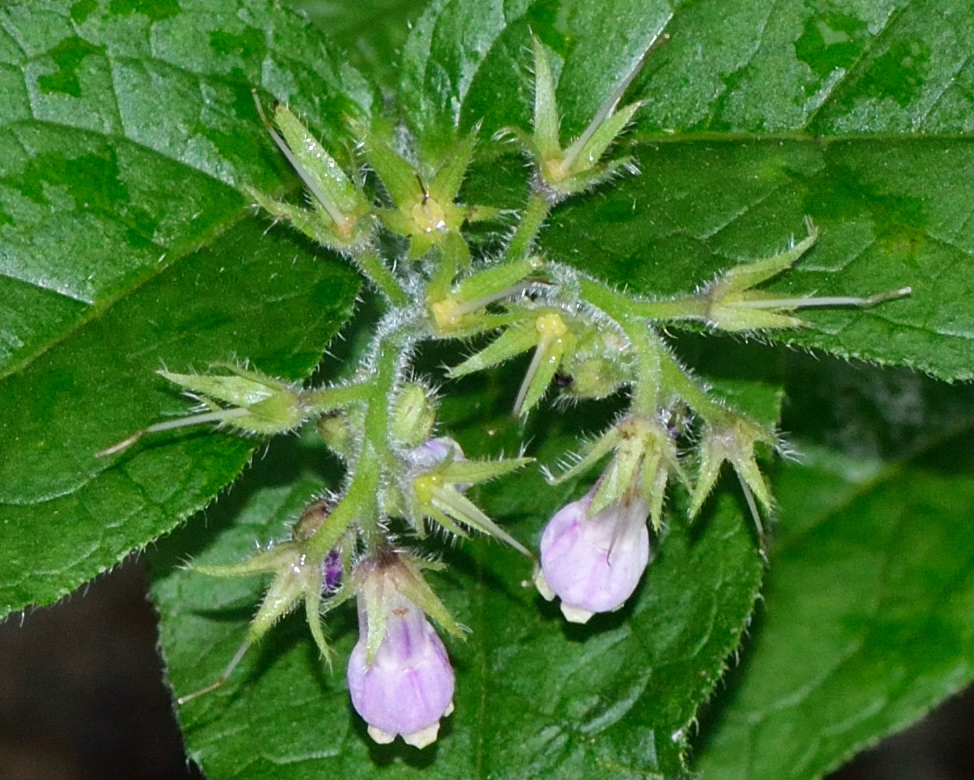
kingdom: Plantae
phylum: Tracheophyta
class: Magnoliopsida
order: Boraginales
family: Boraginaceae
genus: Symphytum
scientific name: Symphytum officinale
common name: Common comfrey
